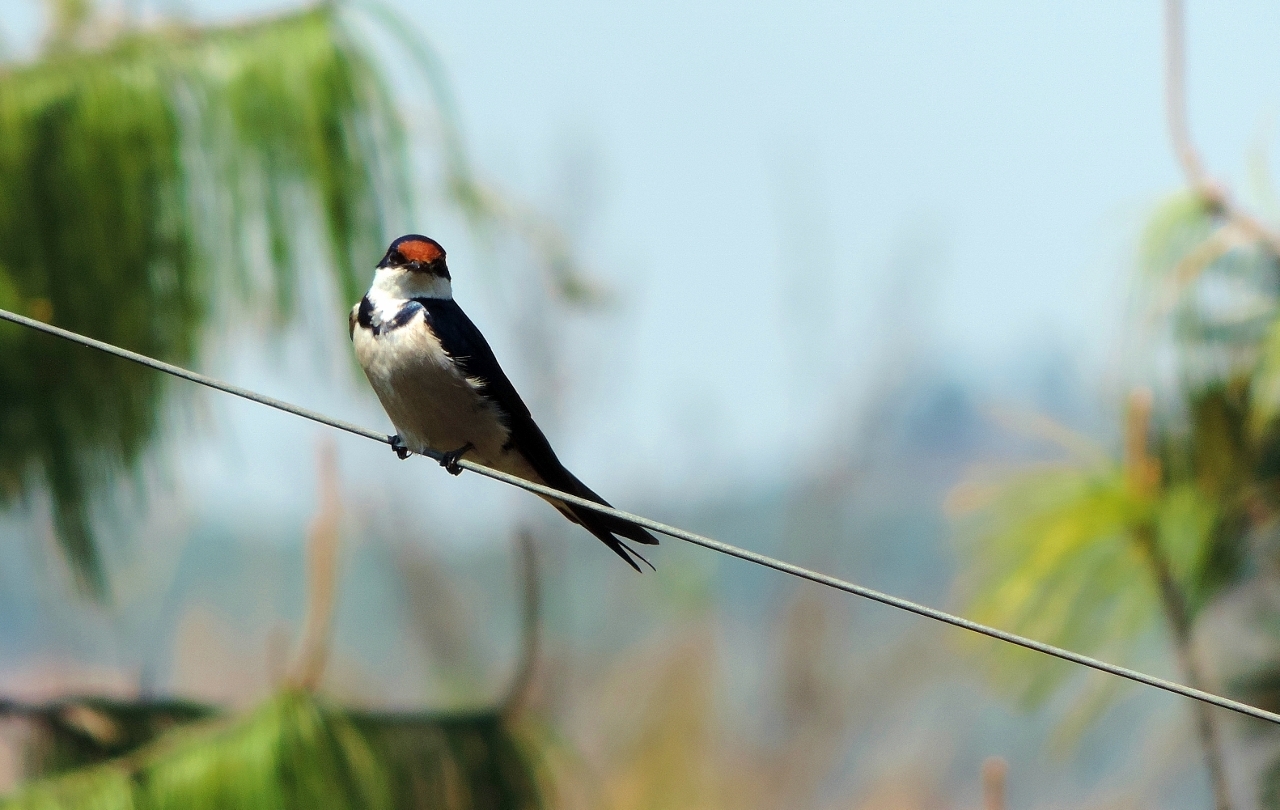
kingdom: Animalia
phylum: Chordata
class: Aves
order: Passeriformes
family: Hirundinidae
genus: Hirundo
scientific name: Hirundo albigularis
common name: White-throated swallow
